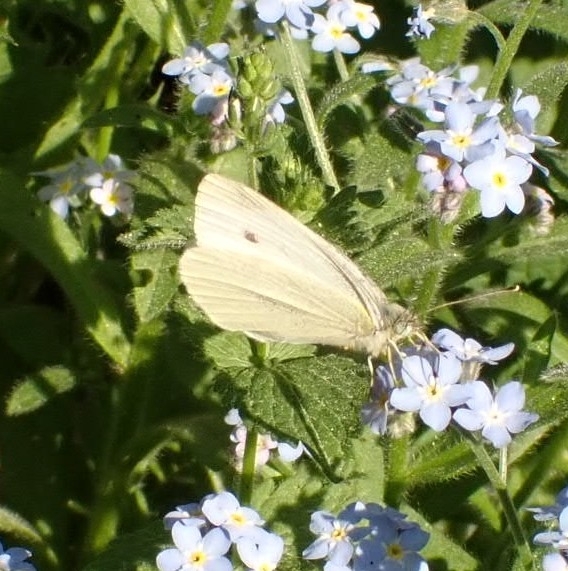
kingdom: Animalia
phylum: Arthropoda
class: Insecta
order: Lepidoptera
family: Pieridae
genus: Pieris
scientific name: Pieris rapae
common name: Small white
